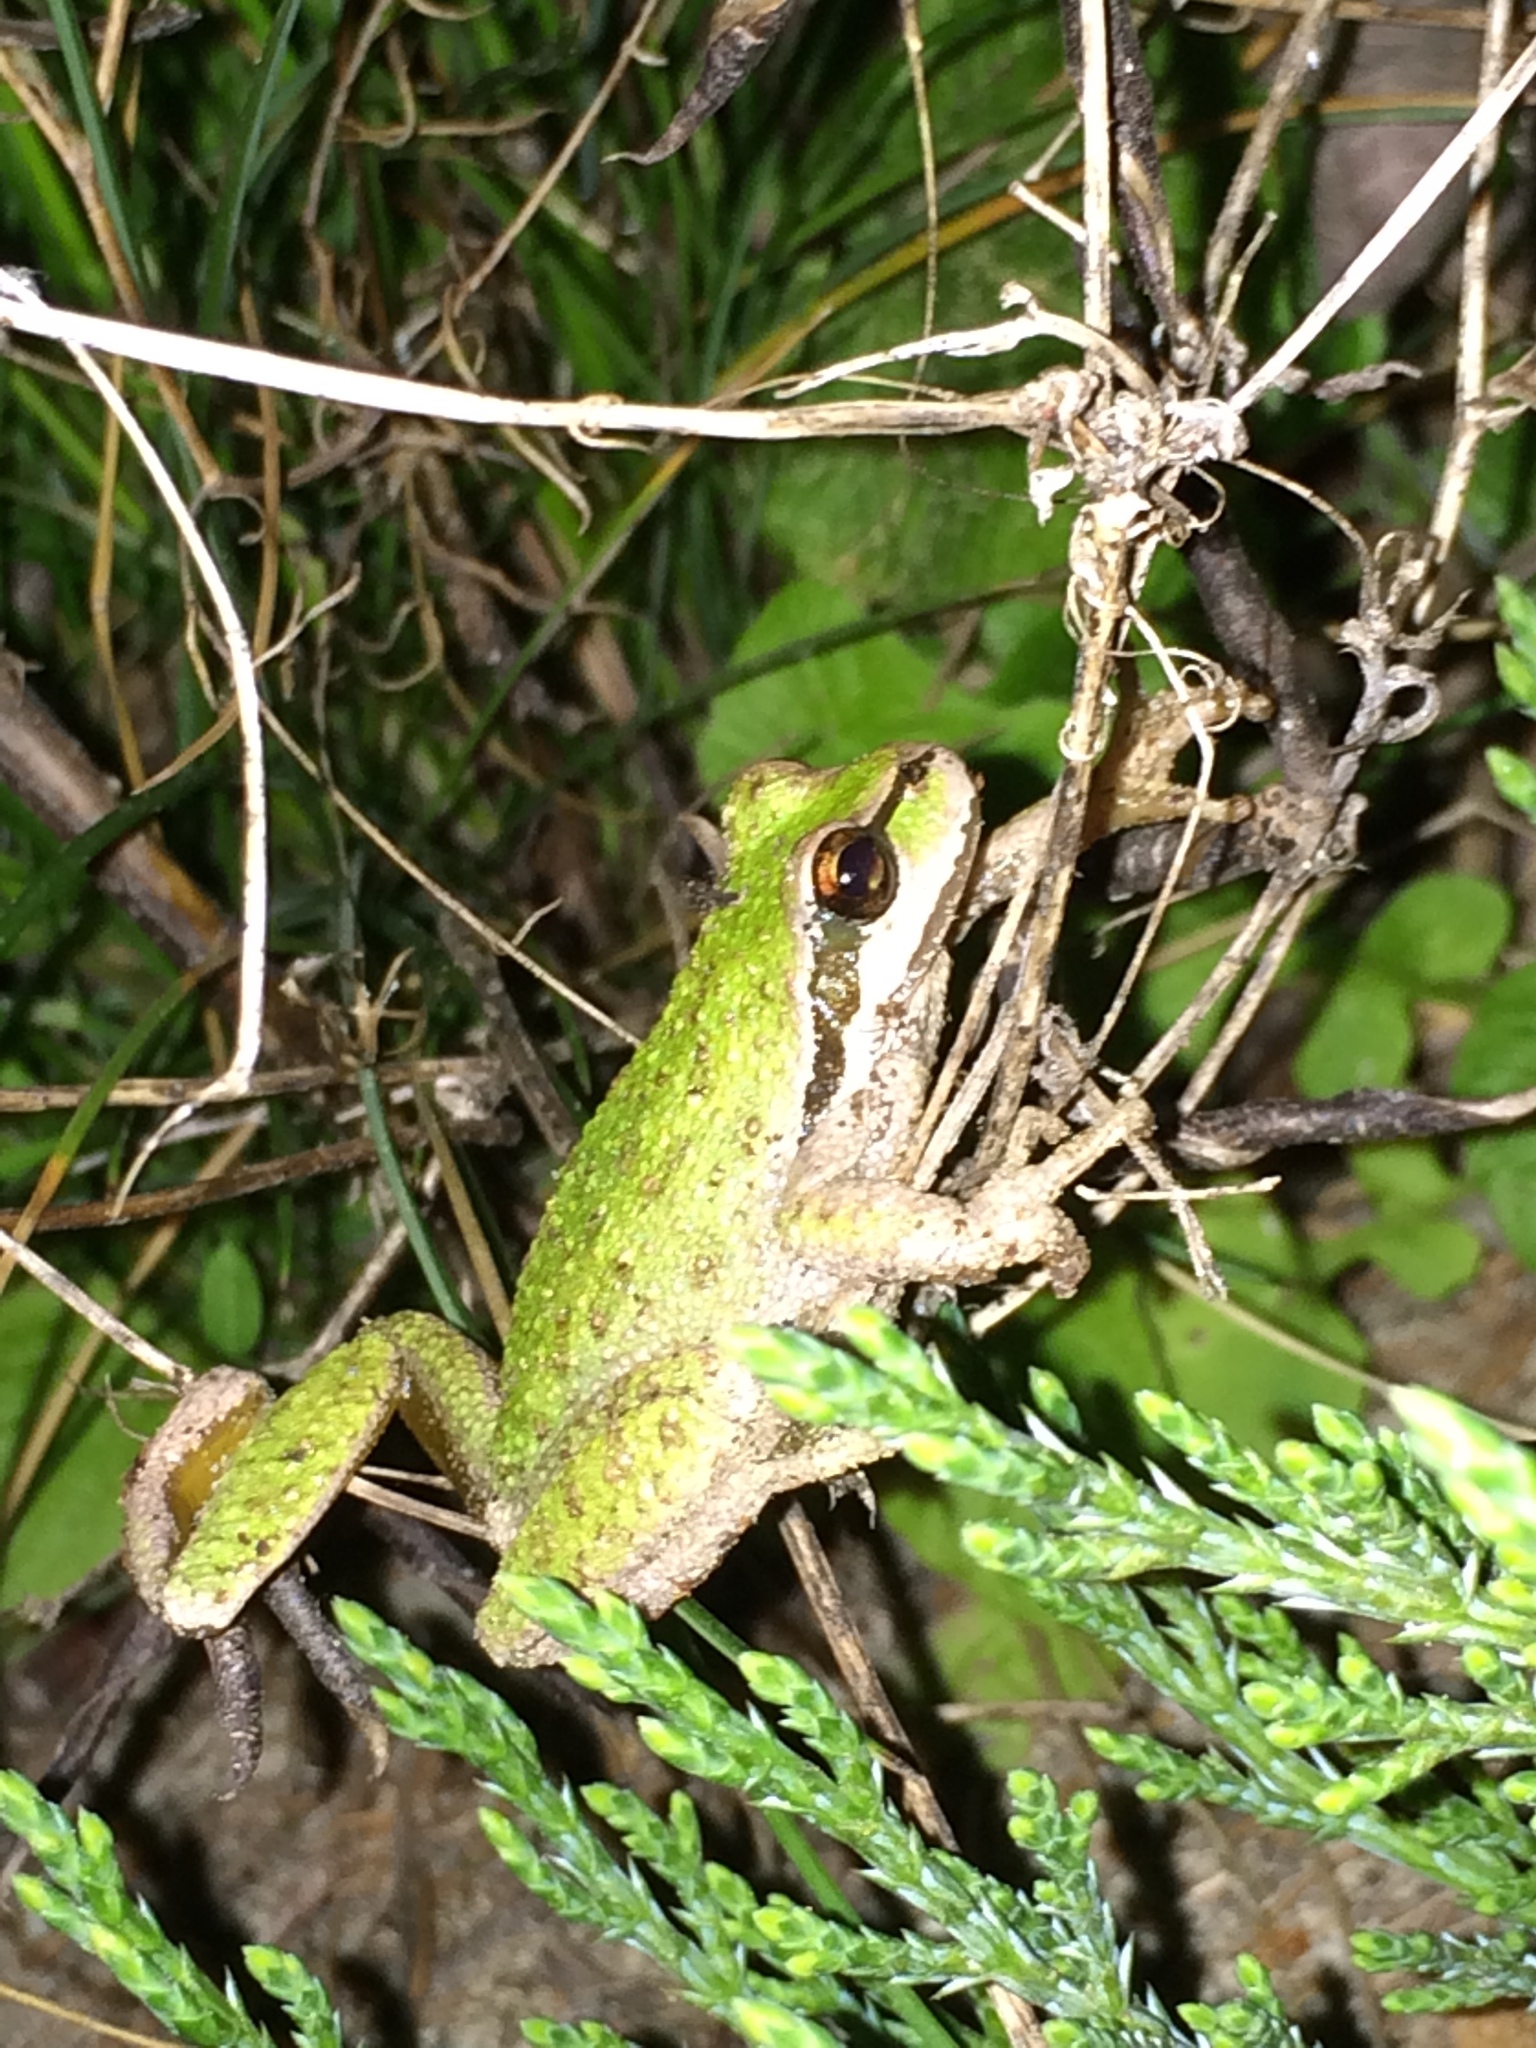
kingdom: Animalia
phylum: Chordata
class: Amphibia
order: Anura
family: Hylidae
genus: Pseudacris
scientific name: Pseudacris regilla
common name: Pacific chorus frog
